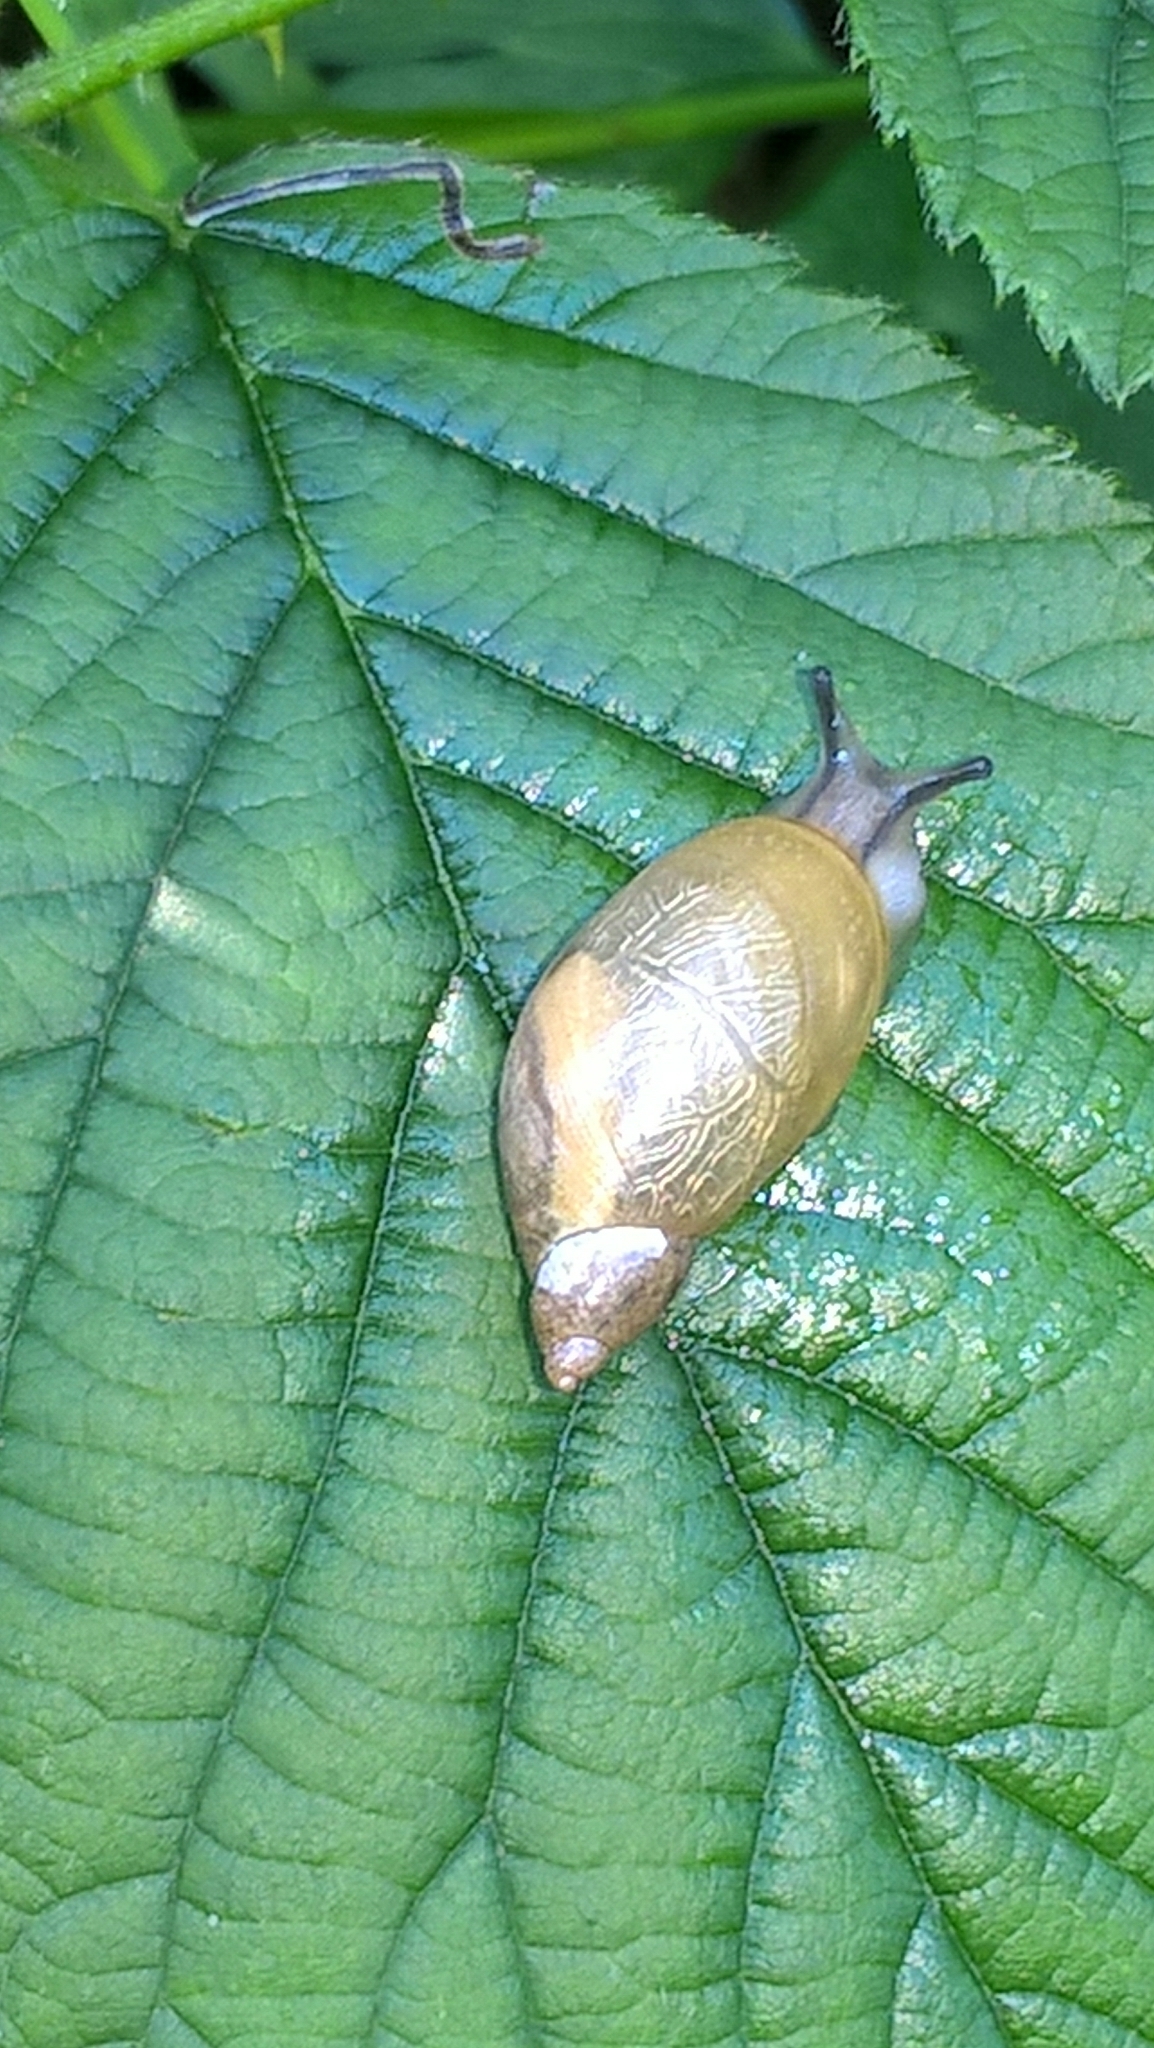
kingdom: Animalia
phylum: Mollusca
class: Gastropoda
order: Stylommatophora
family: Succineidae
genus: Succinea
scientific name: Succinea putris
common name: European ambersnail
